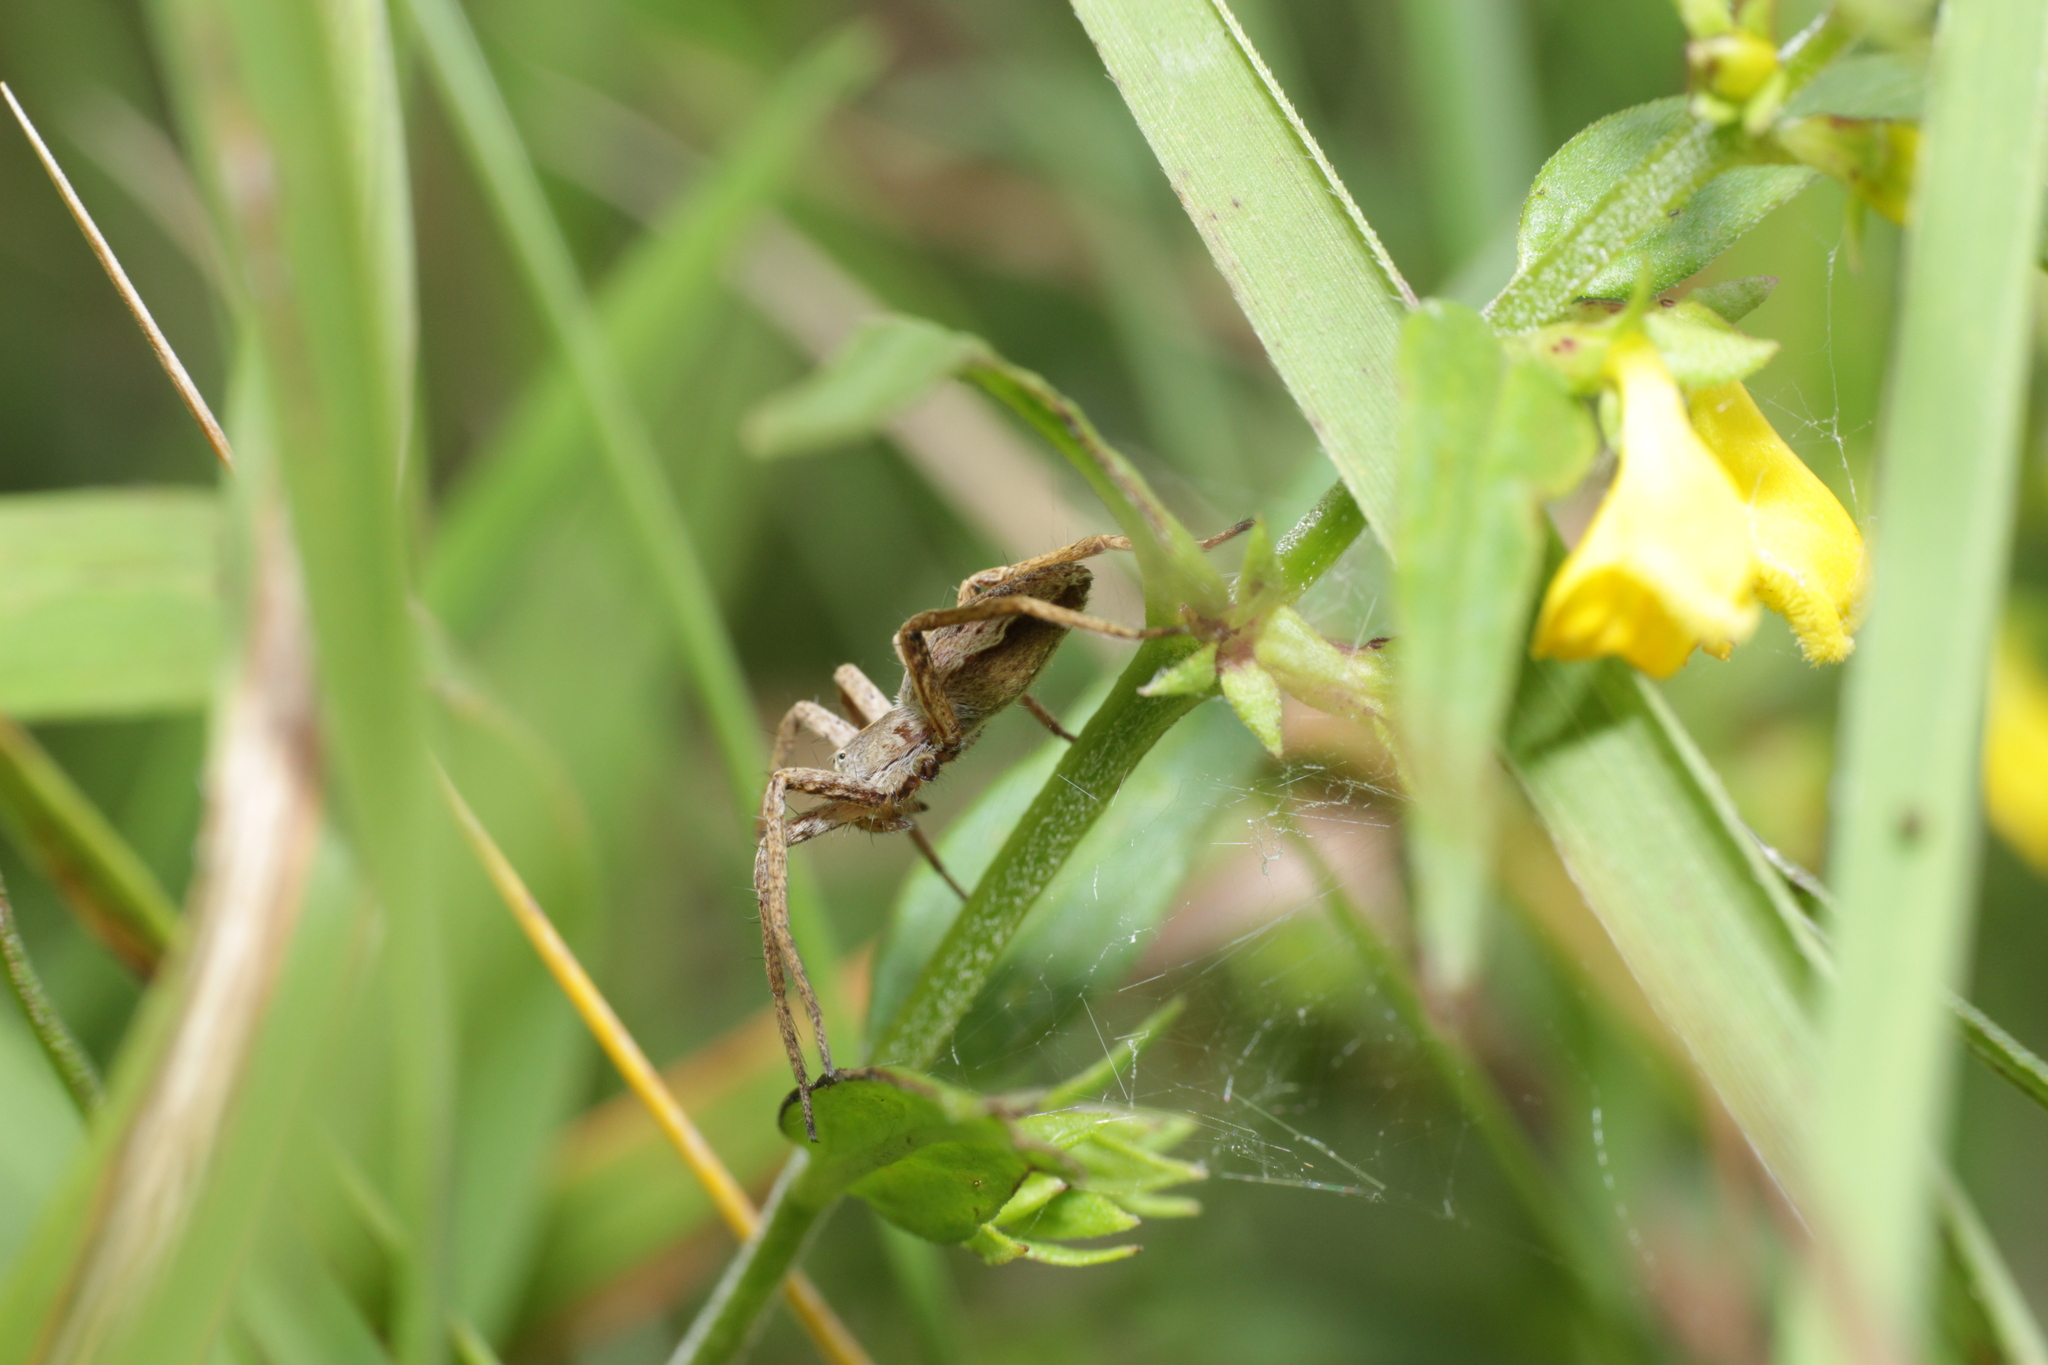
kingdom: Animalia
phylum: Arthropoda
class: Arachnida
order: Araneae
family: Pisauridae
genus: Pisaura
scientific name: Pisaura mirabilis
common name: Tent spider
